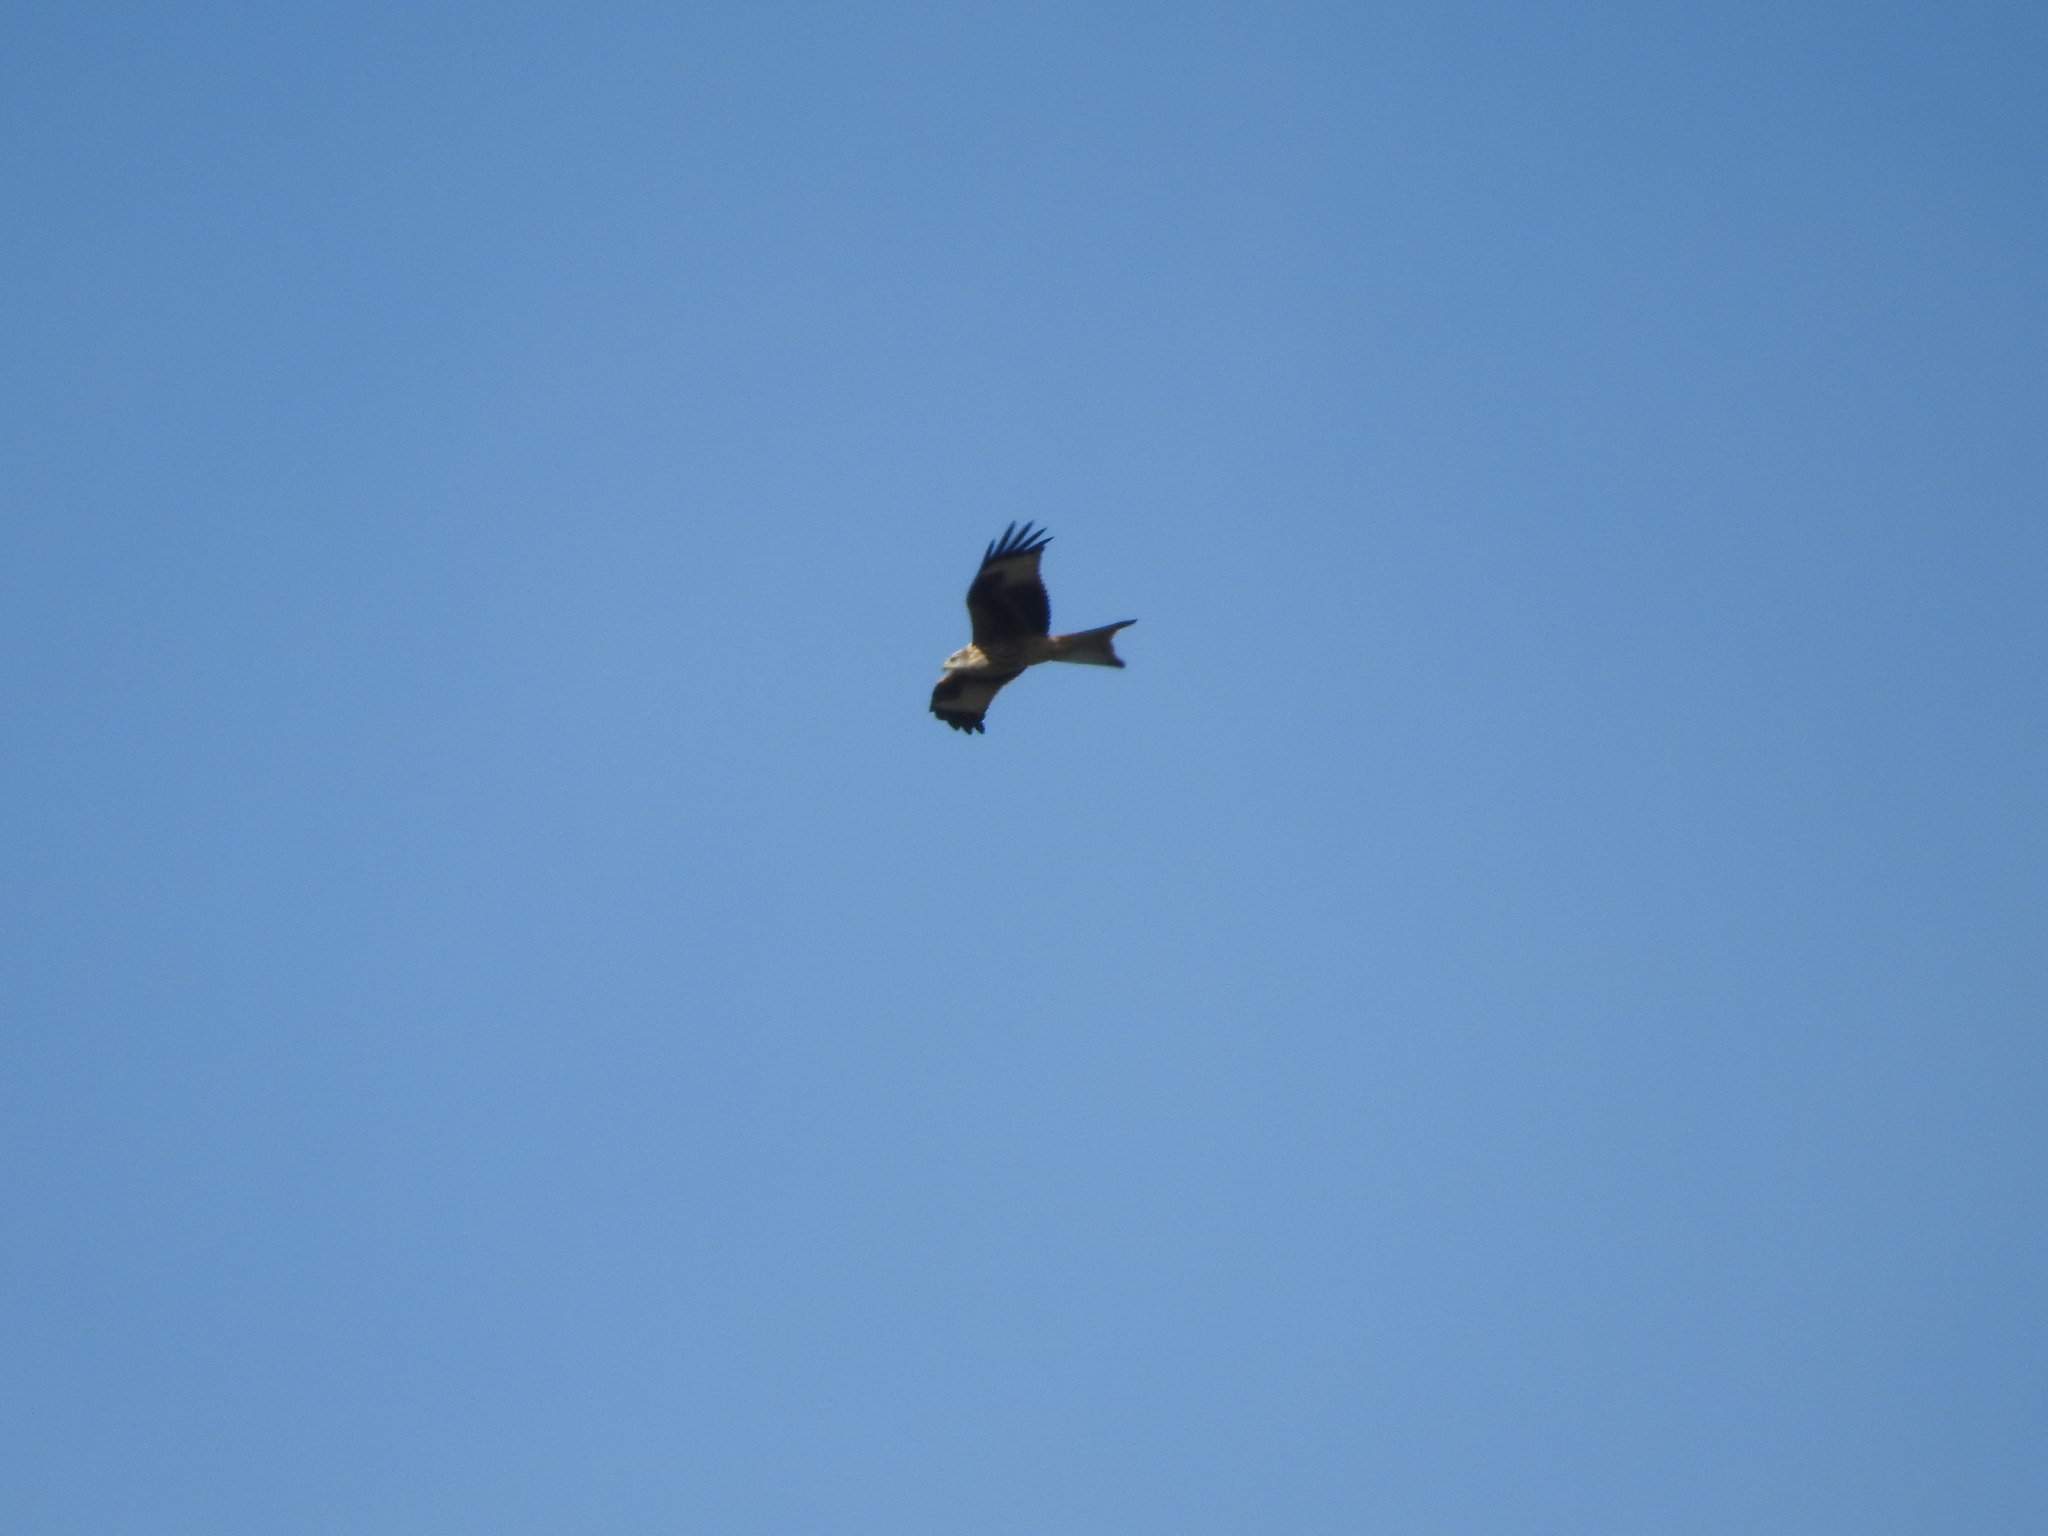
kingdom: Animalia
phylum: Chordata
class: Aves
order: Accipitriformes
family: Accipitridae
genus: Milvus
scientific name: Milvus milvus
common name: Red kite
